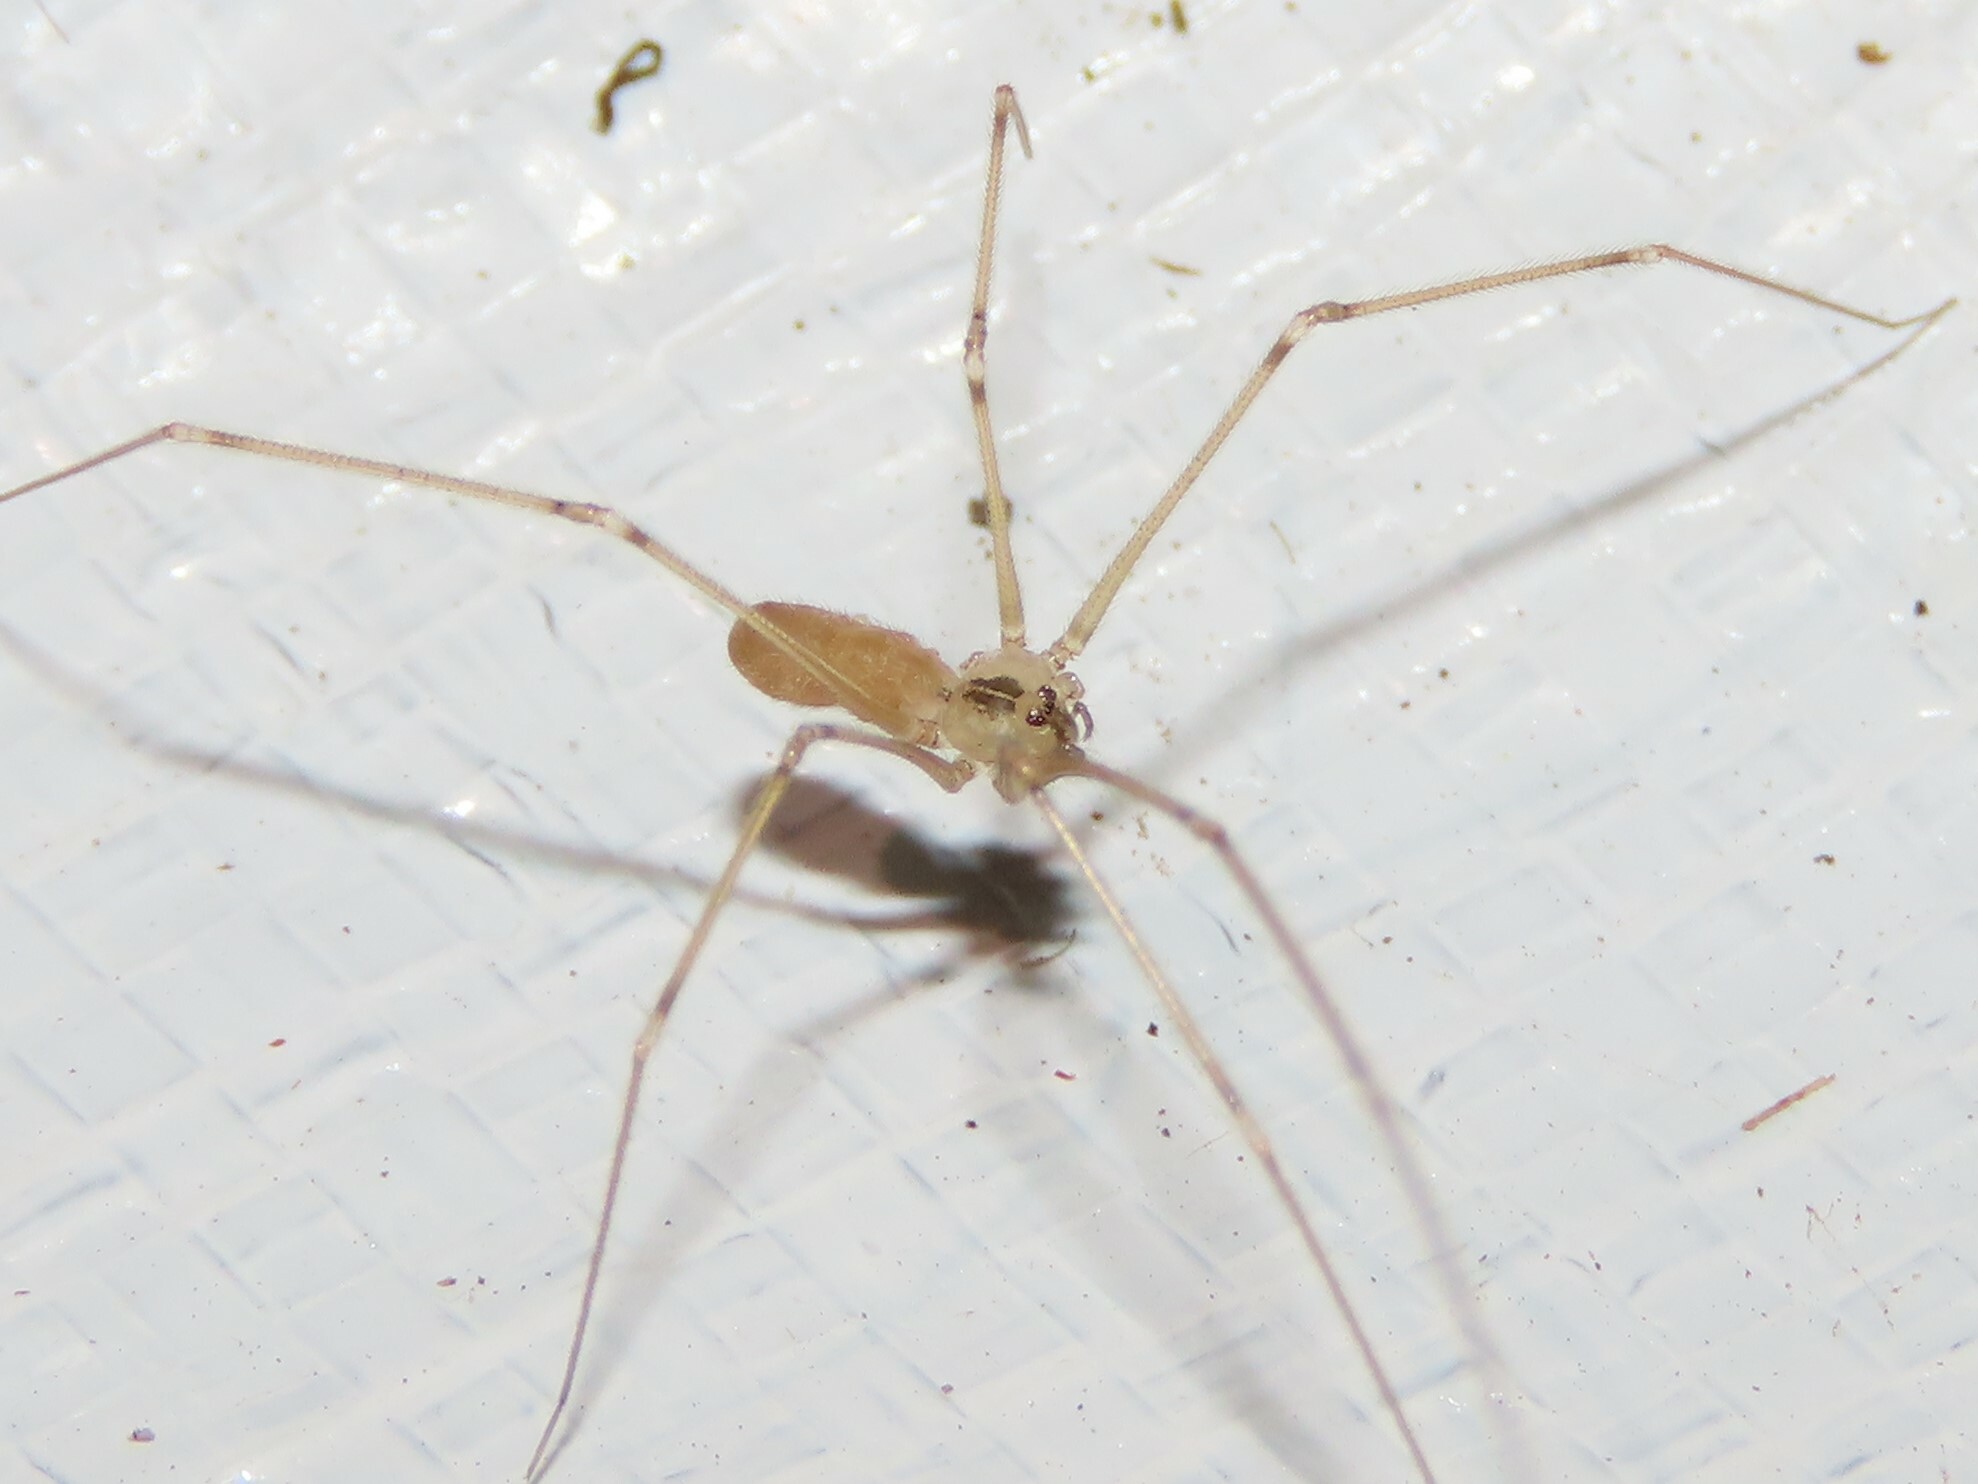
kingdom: Animalia
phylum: Arthropoda
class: Arachnida
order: Araneae
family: Pholcidae
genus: Pholcus
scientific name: Pholcus manueli
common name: Cellar spider
